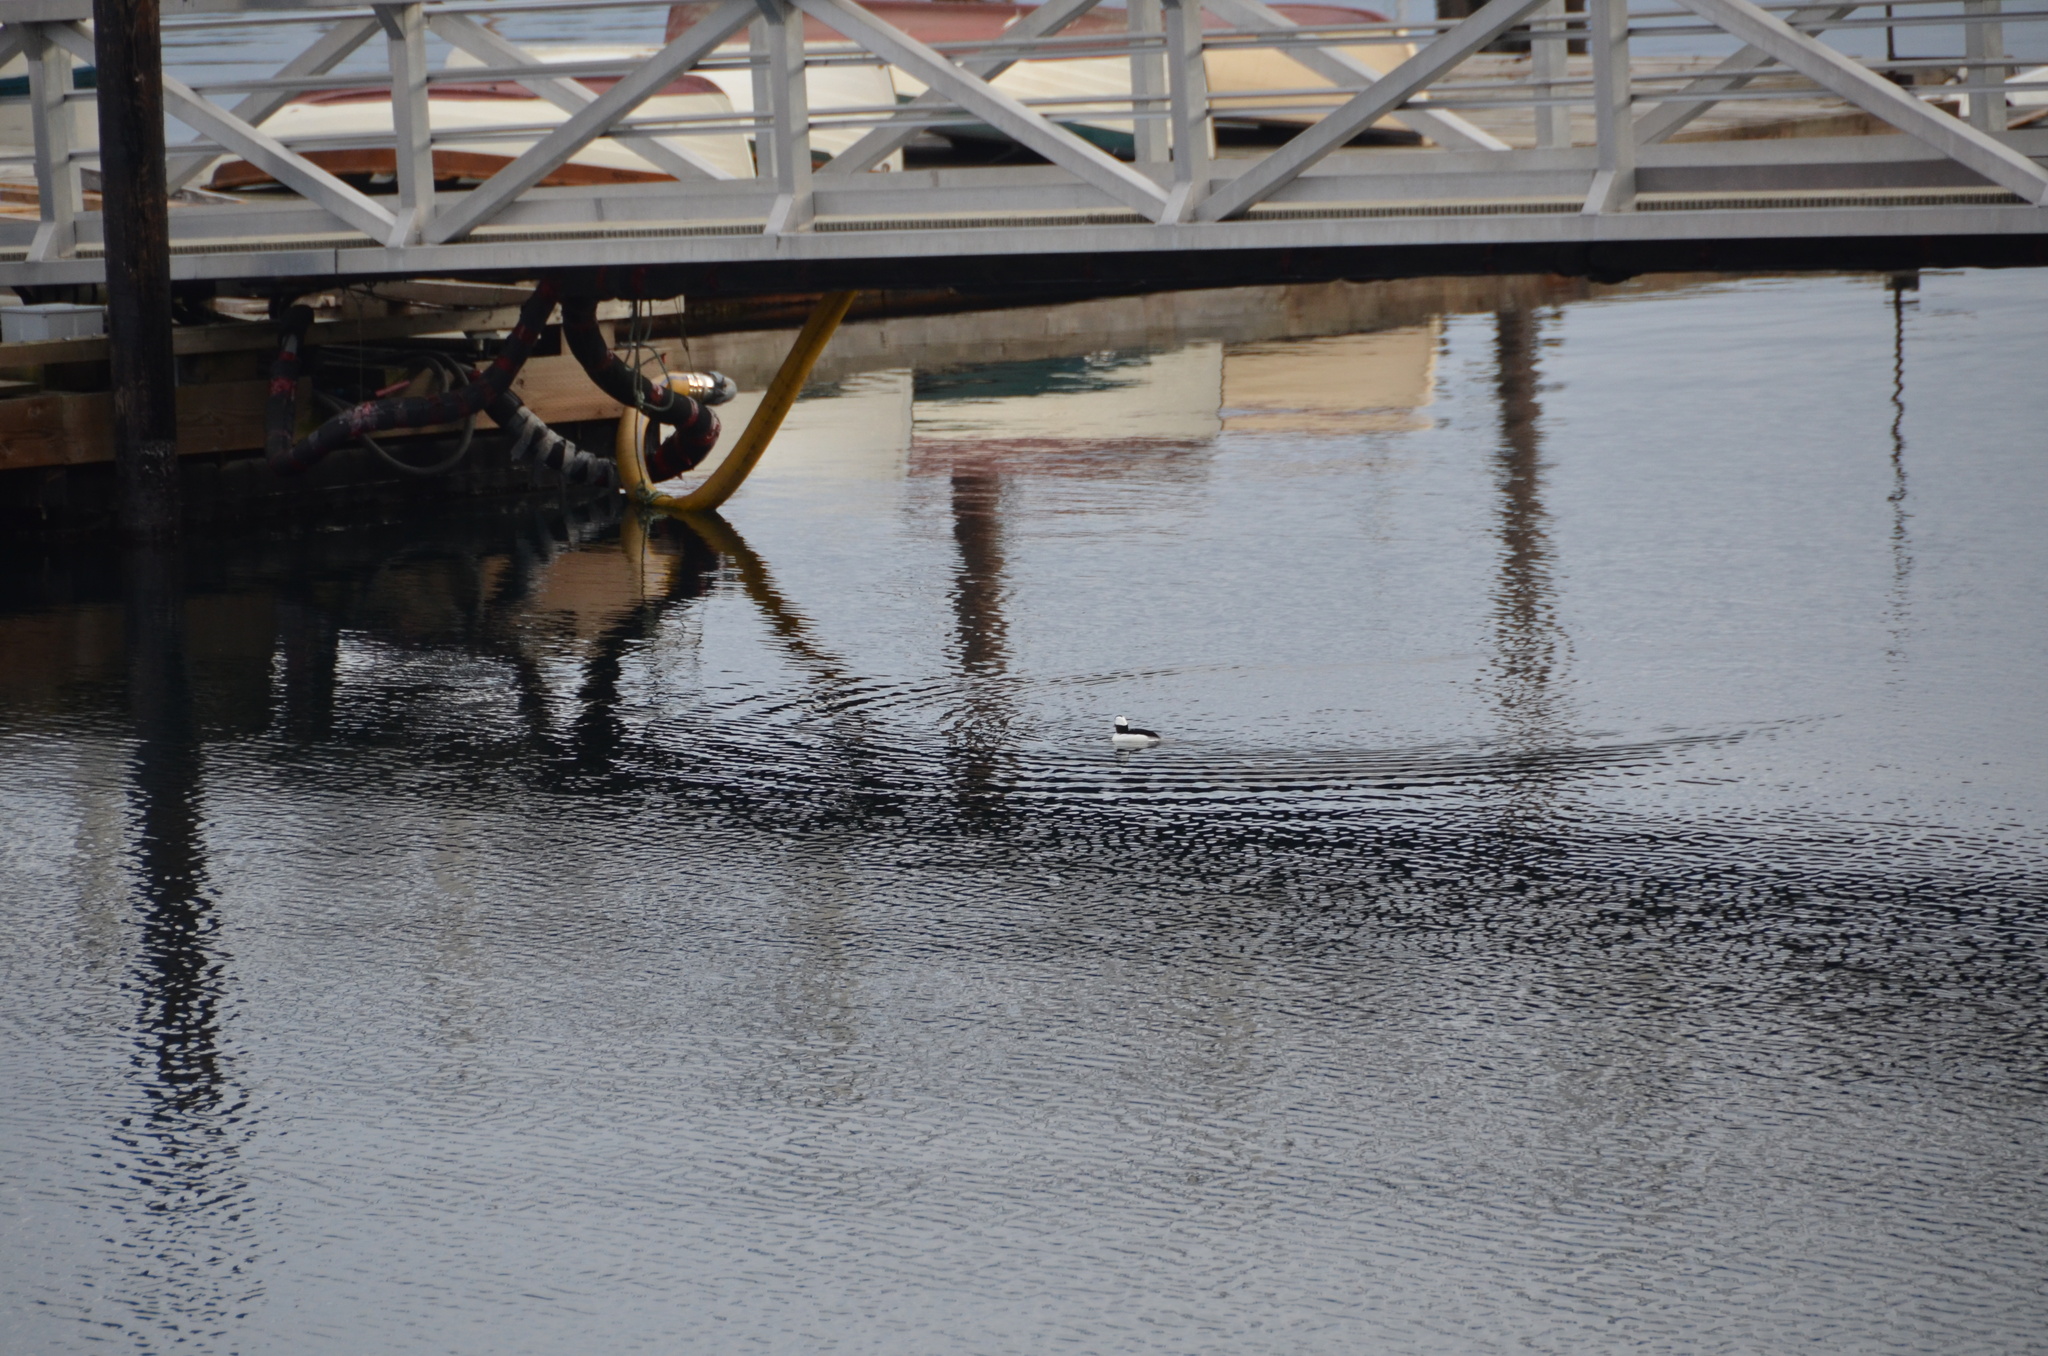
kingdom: Animalia
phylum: Chordata
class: Aves
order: Anseriformes
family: Anatidae
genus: Bucephala
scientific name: Bucephala albeola
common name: Bufflehead
